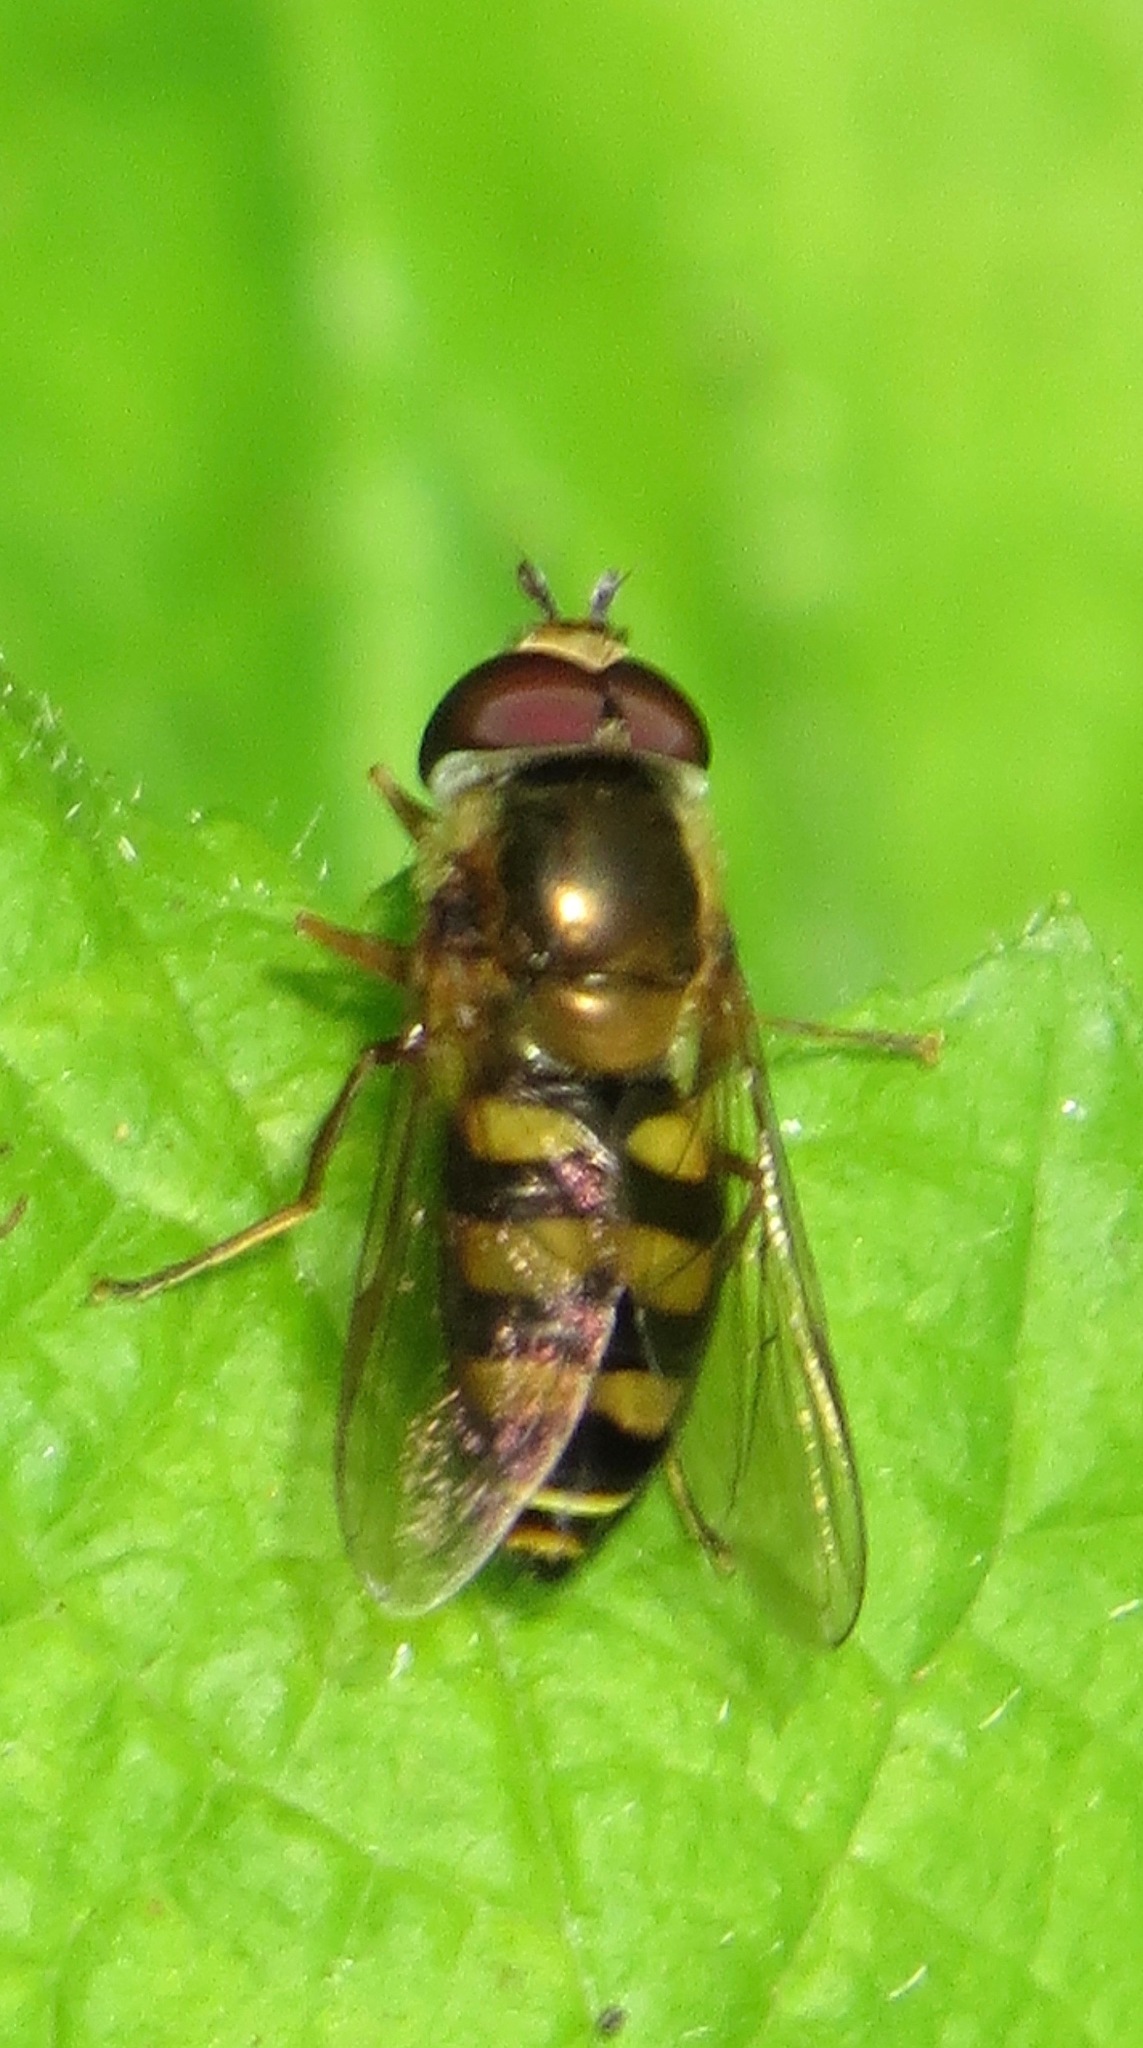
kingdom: Animalia
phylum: Arthropoda
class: Insecta
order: Diptera
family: Syrphidae
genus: Eupeodes
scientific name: Eupeodes fumipennis
